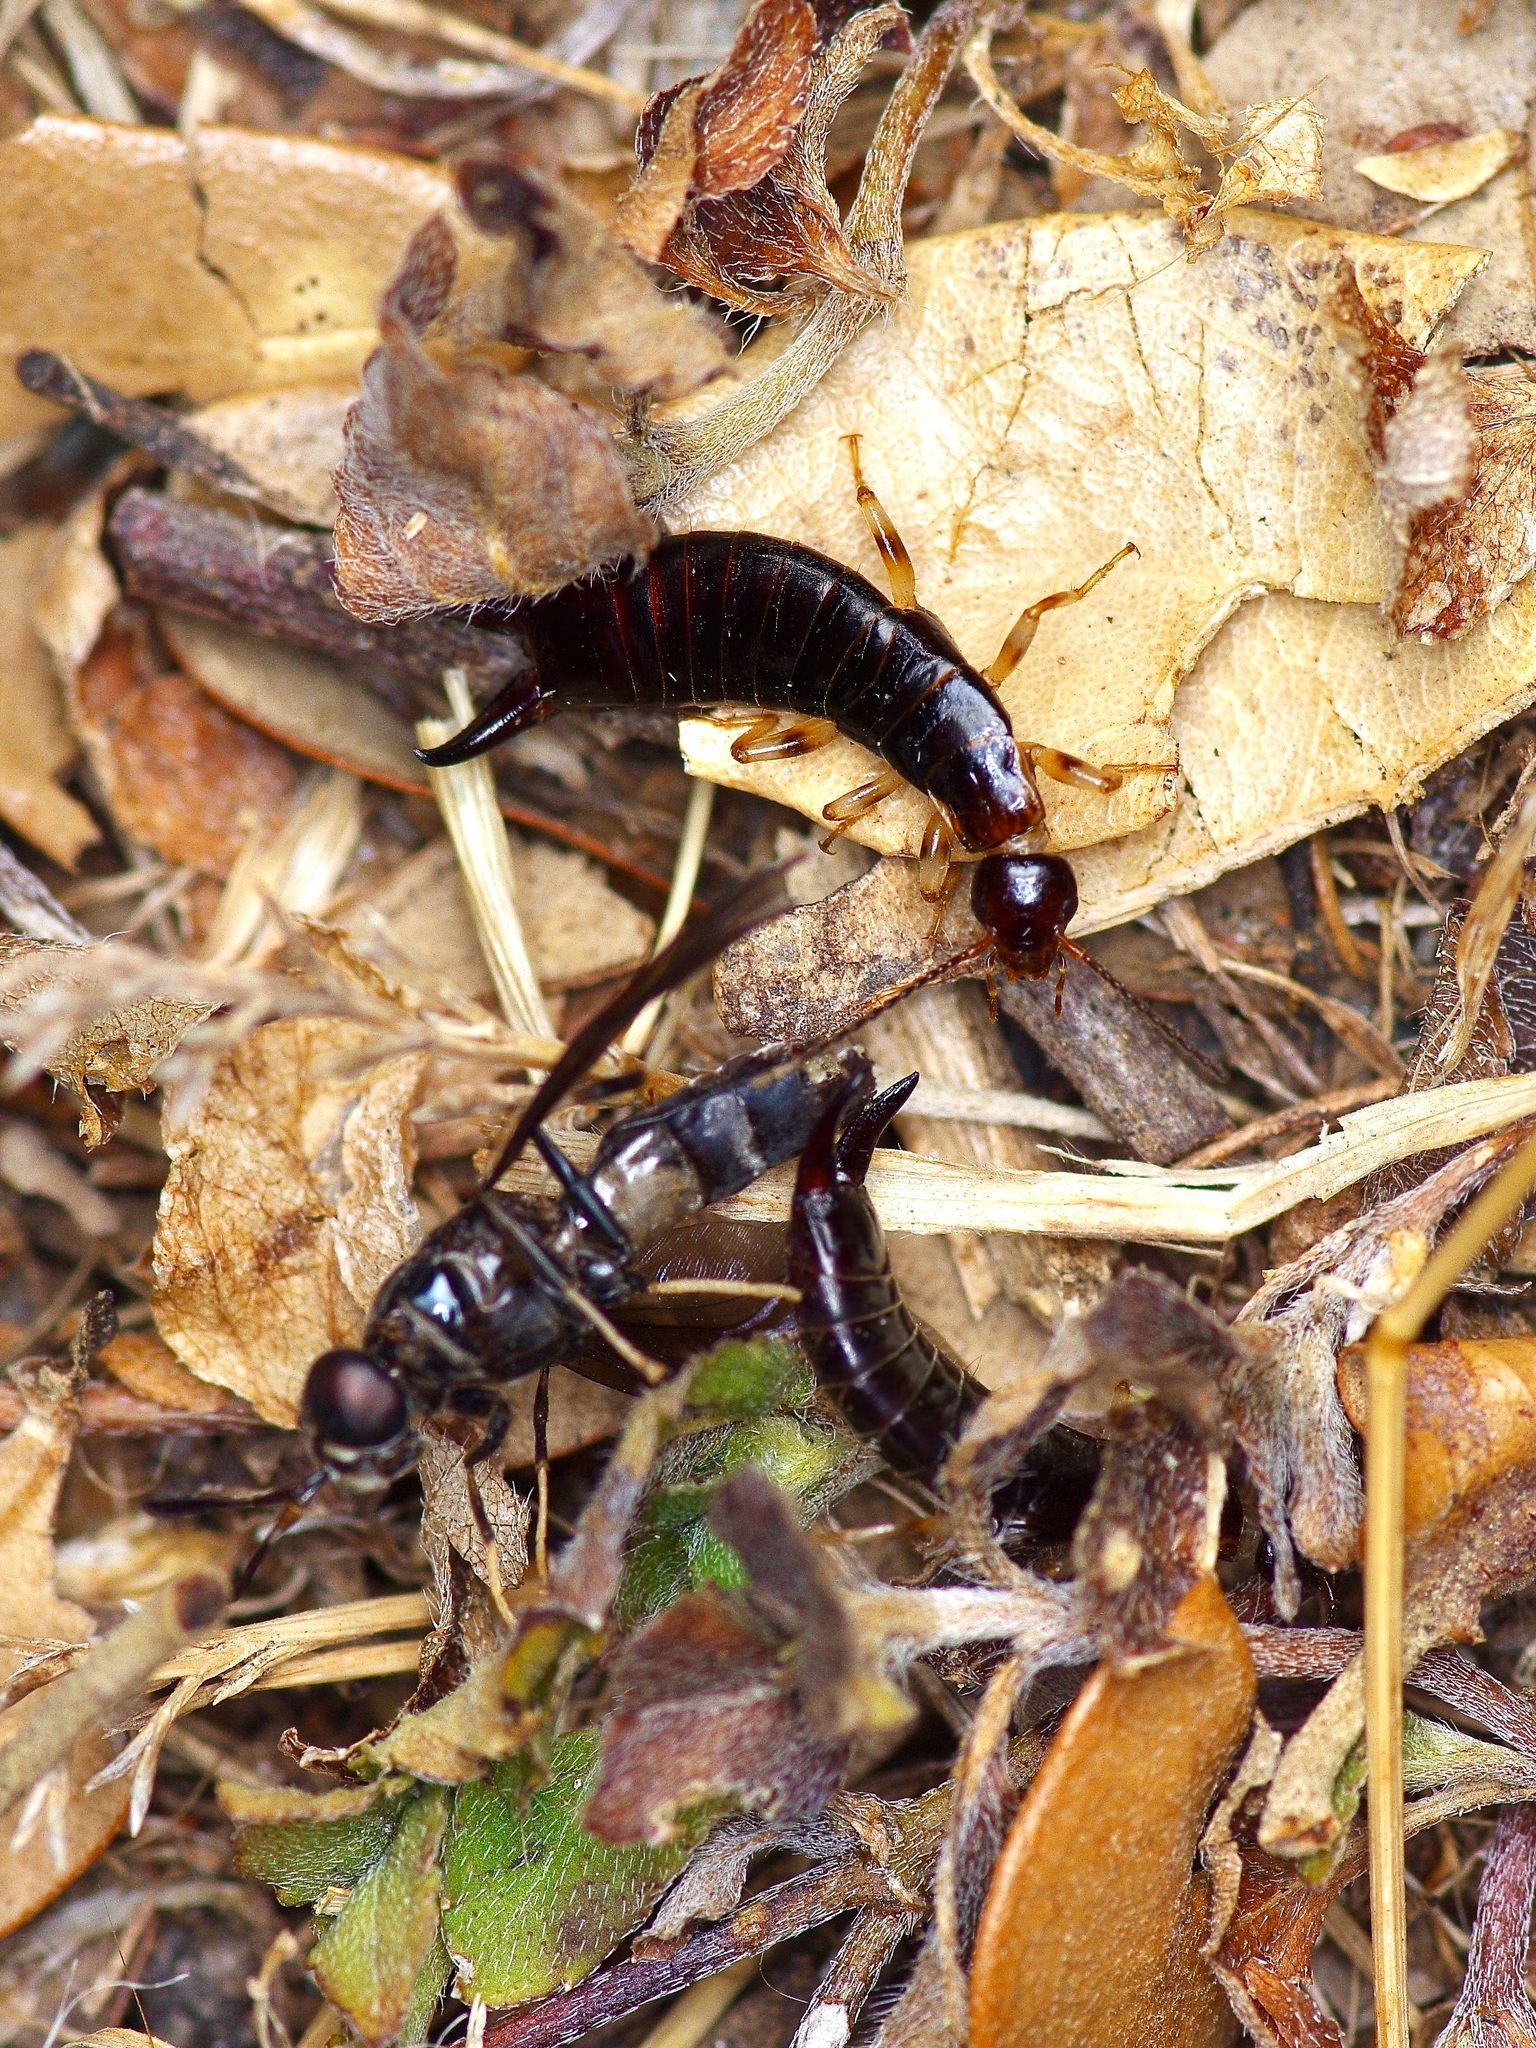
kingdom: Animalia
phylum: Arthropoda
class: Insecta
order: Dermaptera
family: Anisolabididae
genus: Euborellia
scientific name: Euborellia annulipes
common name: Ringlegged earwig
